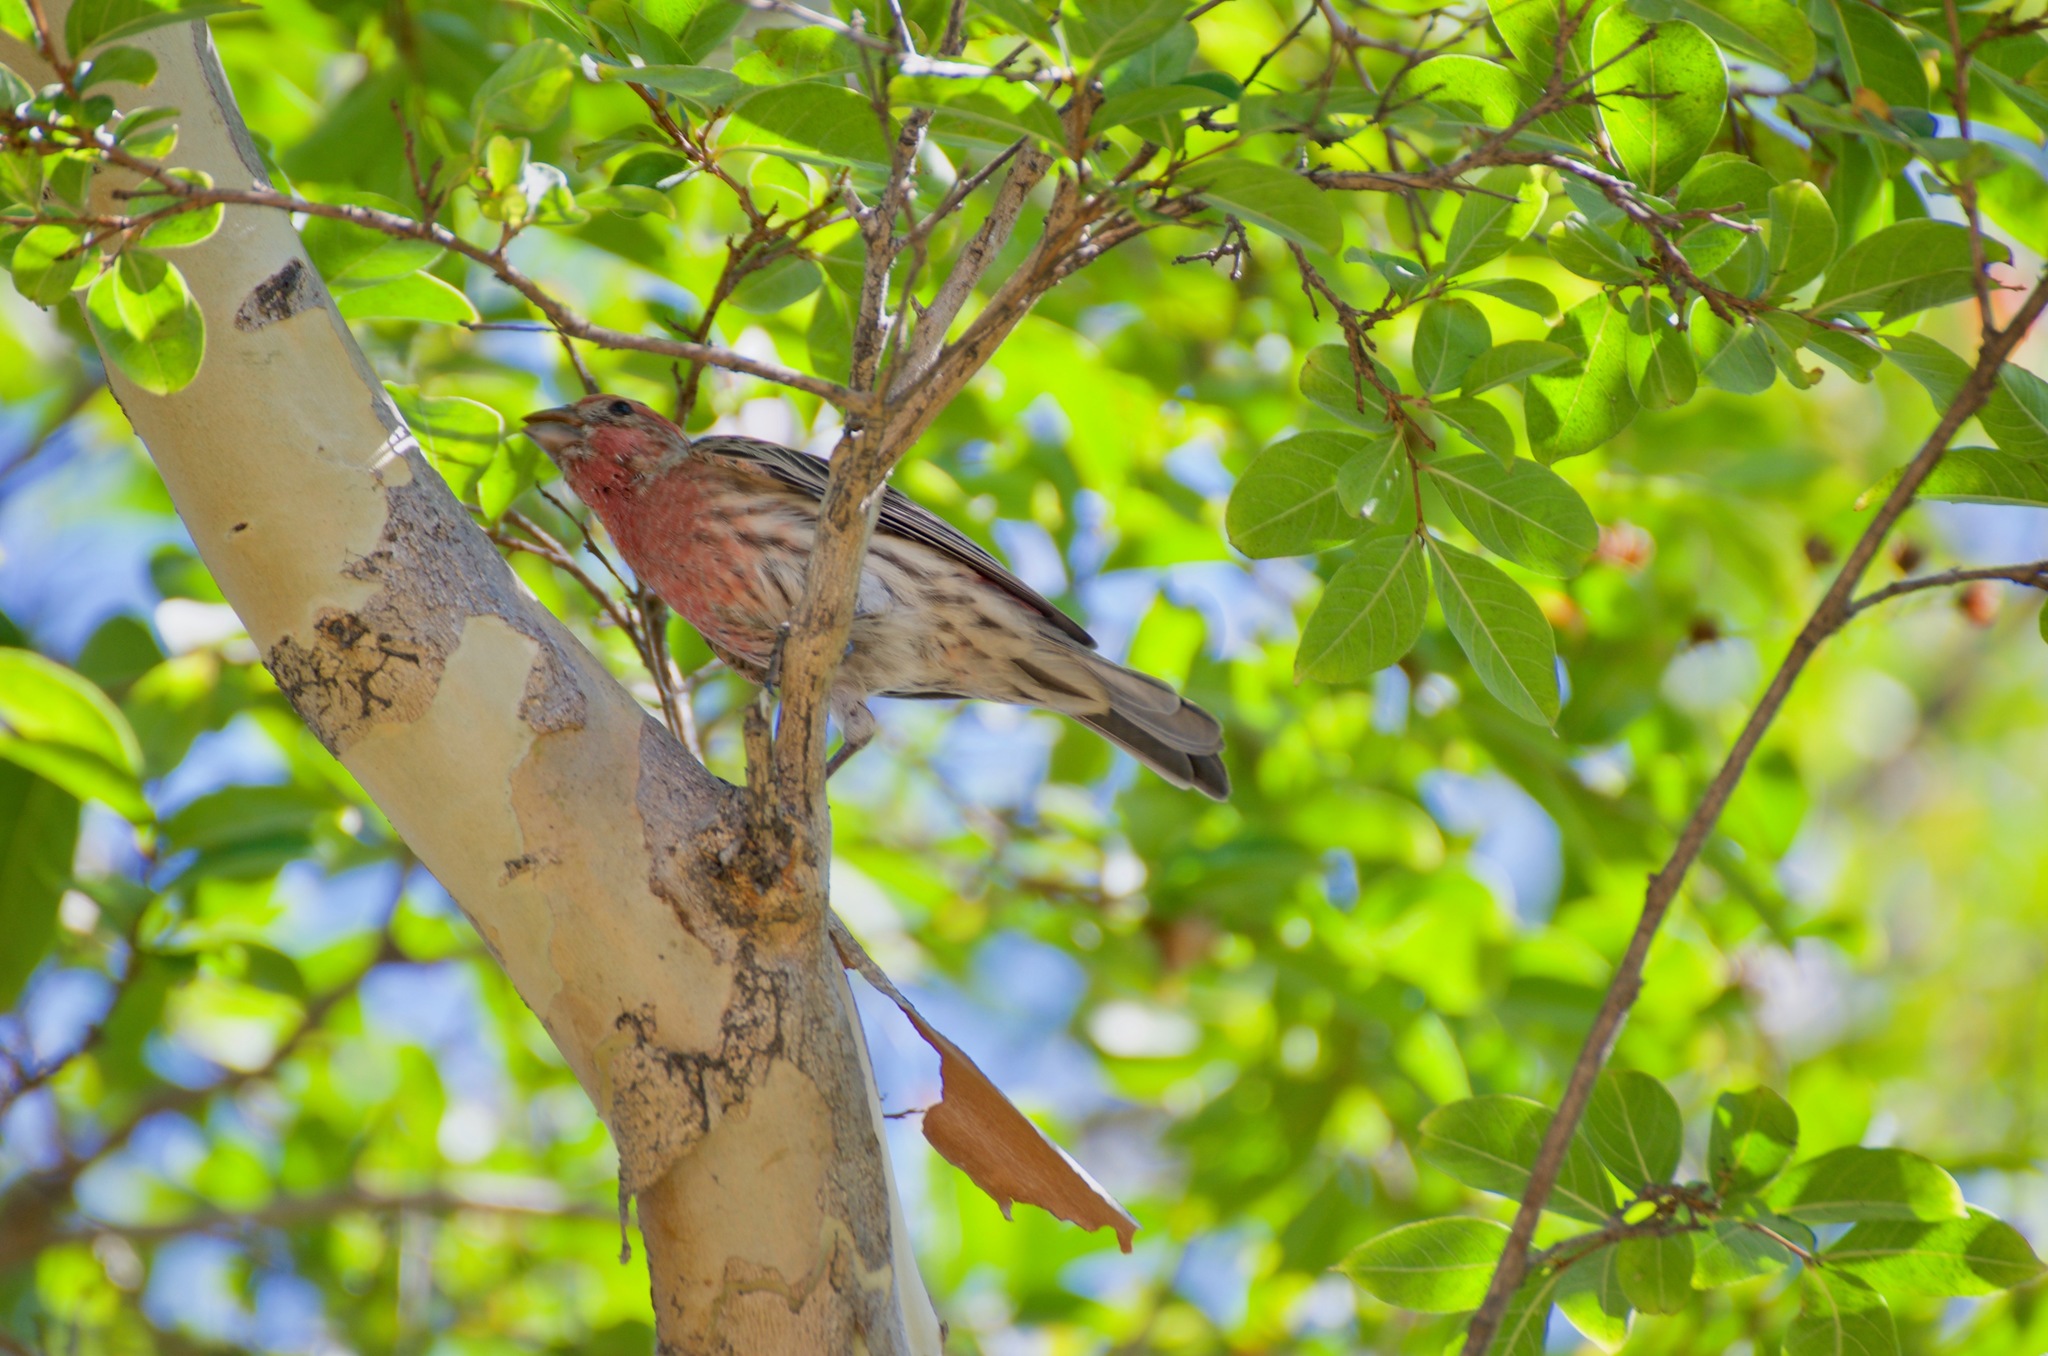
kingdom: Animalia
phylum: Chordata
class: Aves
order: Passeriformes
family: Fringillidae
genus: Haemorhous
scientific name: Haemorhous mexicanus
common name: House finch
